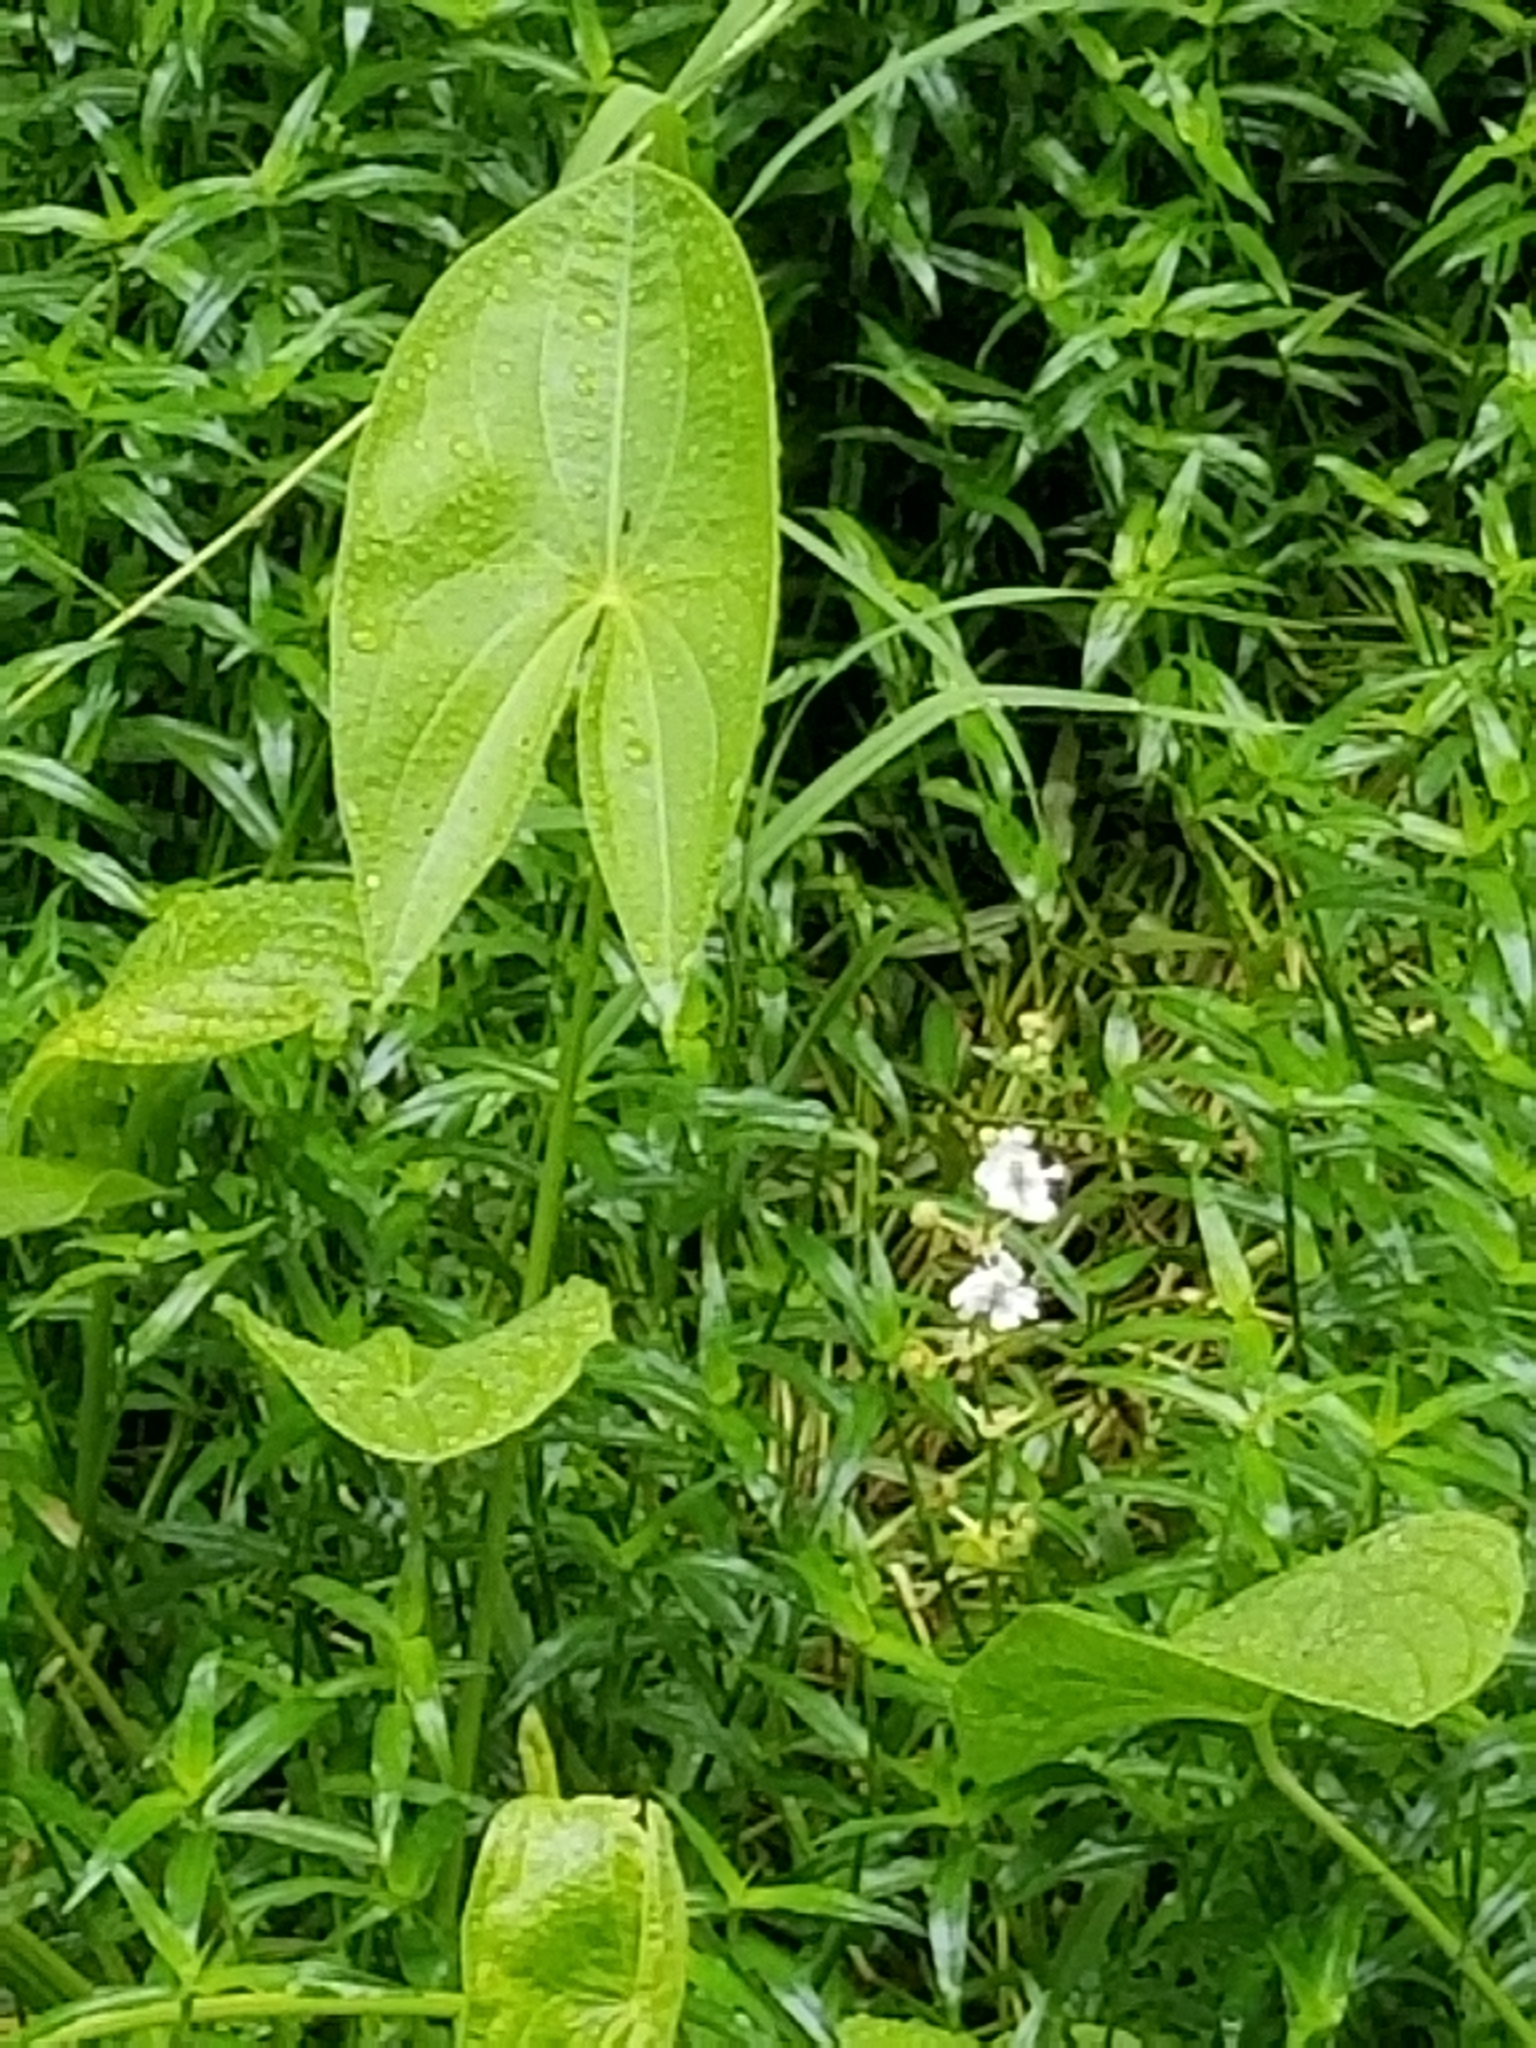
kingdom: Plantae
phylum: Tracheophyta
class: Liliopsida
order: Alismatales
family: Alismataceae
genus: Sagittaria
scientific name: Sagittaria latifolia
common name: Duck-potato
